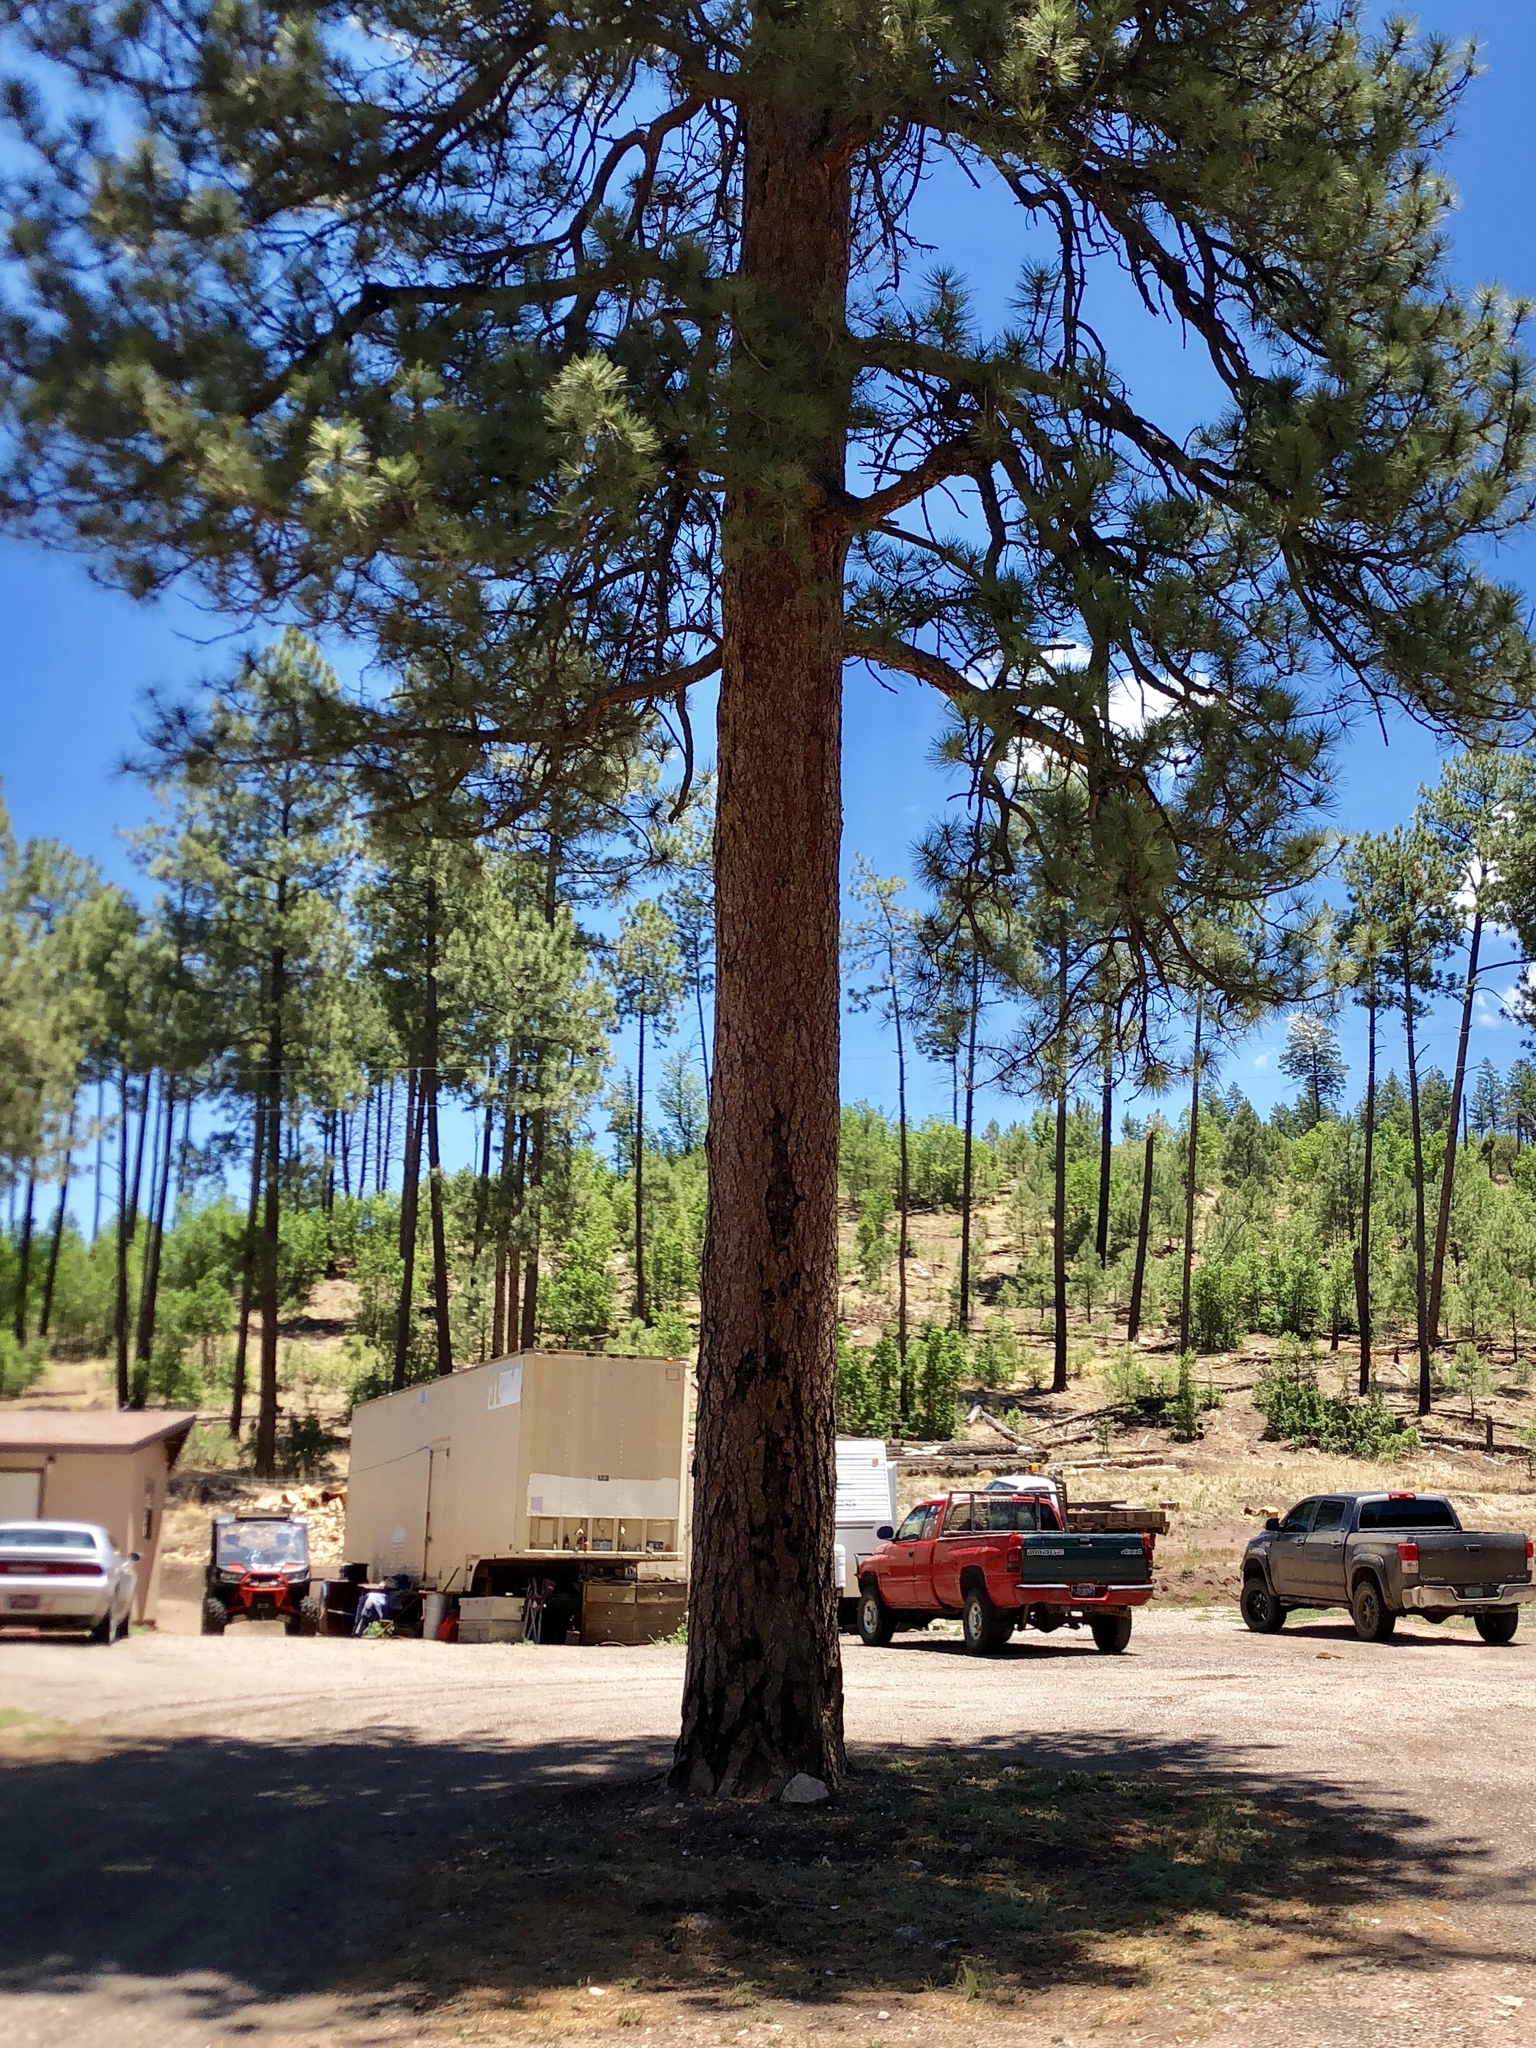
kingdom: Plantae
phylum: Tracheophyta
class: Pinopsida
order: Pinales
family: Pinaceae
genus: Pinus
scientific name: Pinus ponderosa
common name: Western yellow-pine
